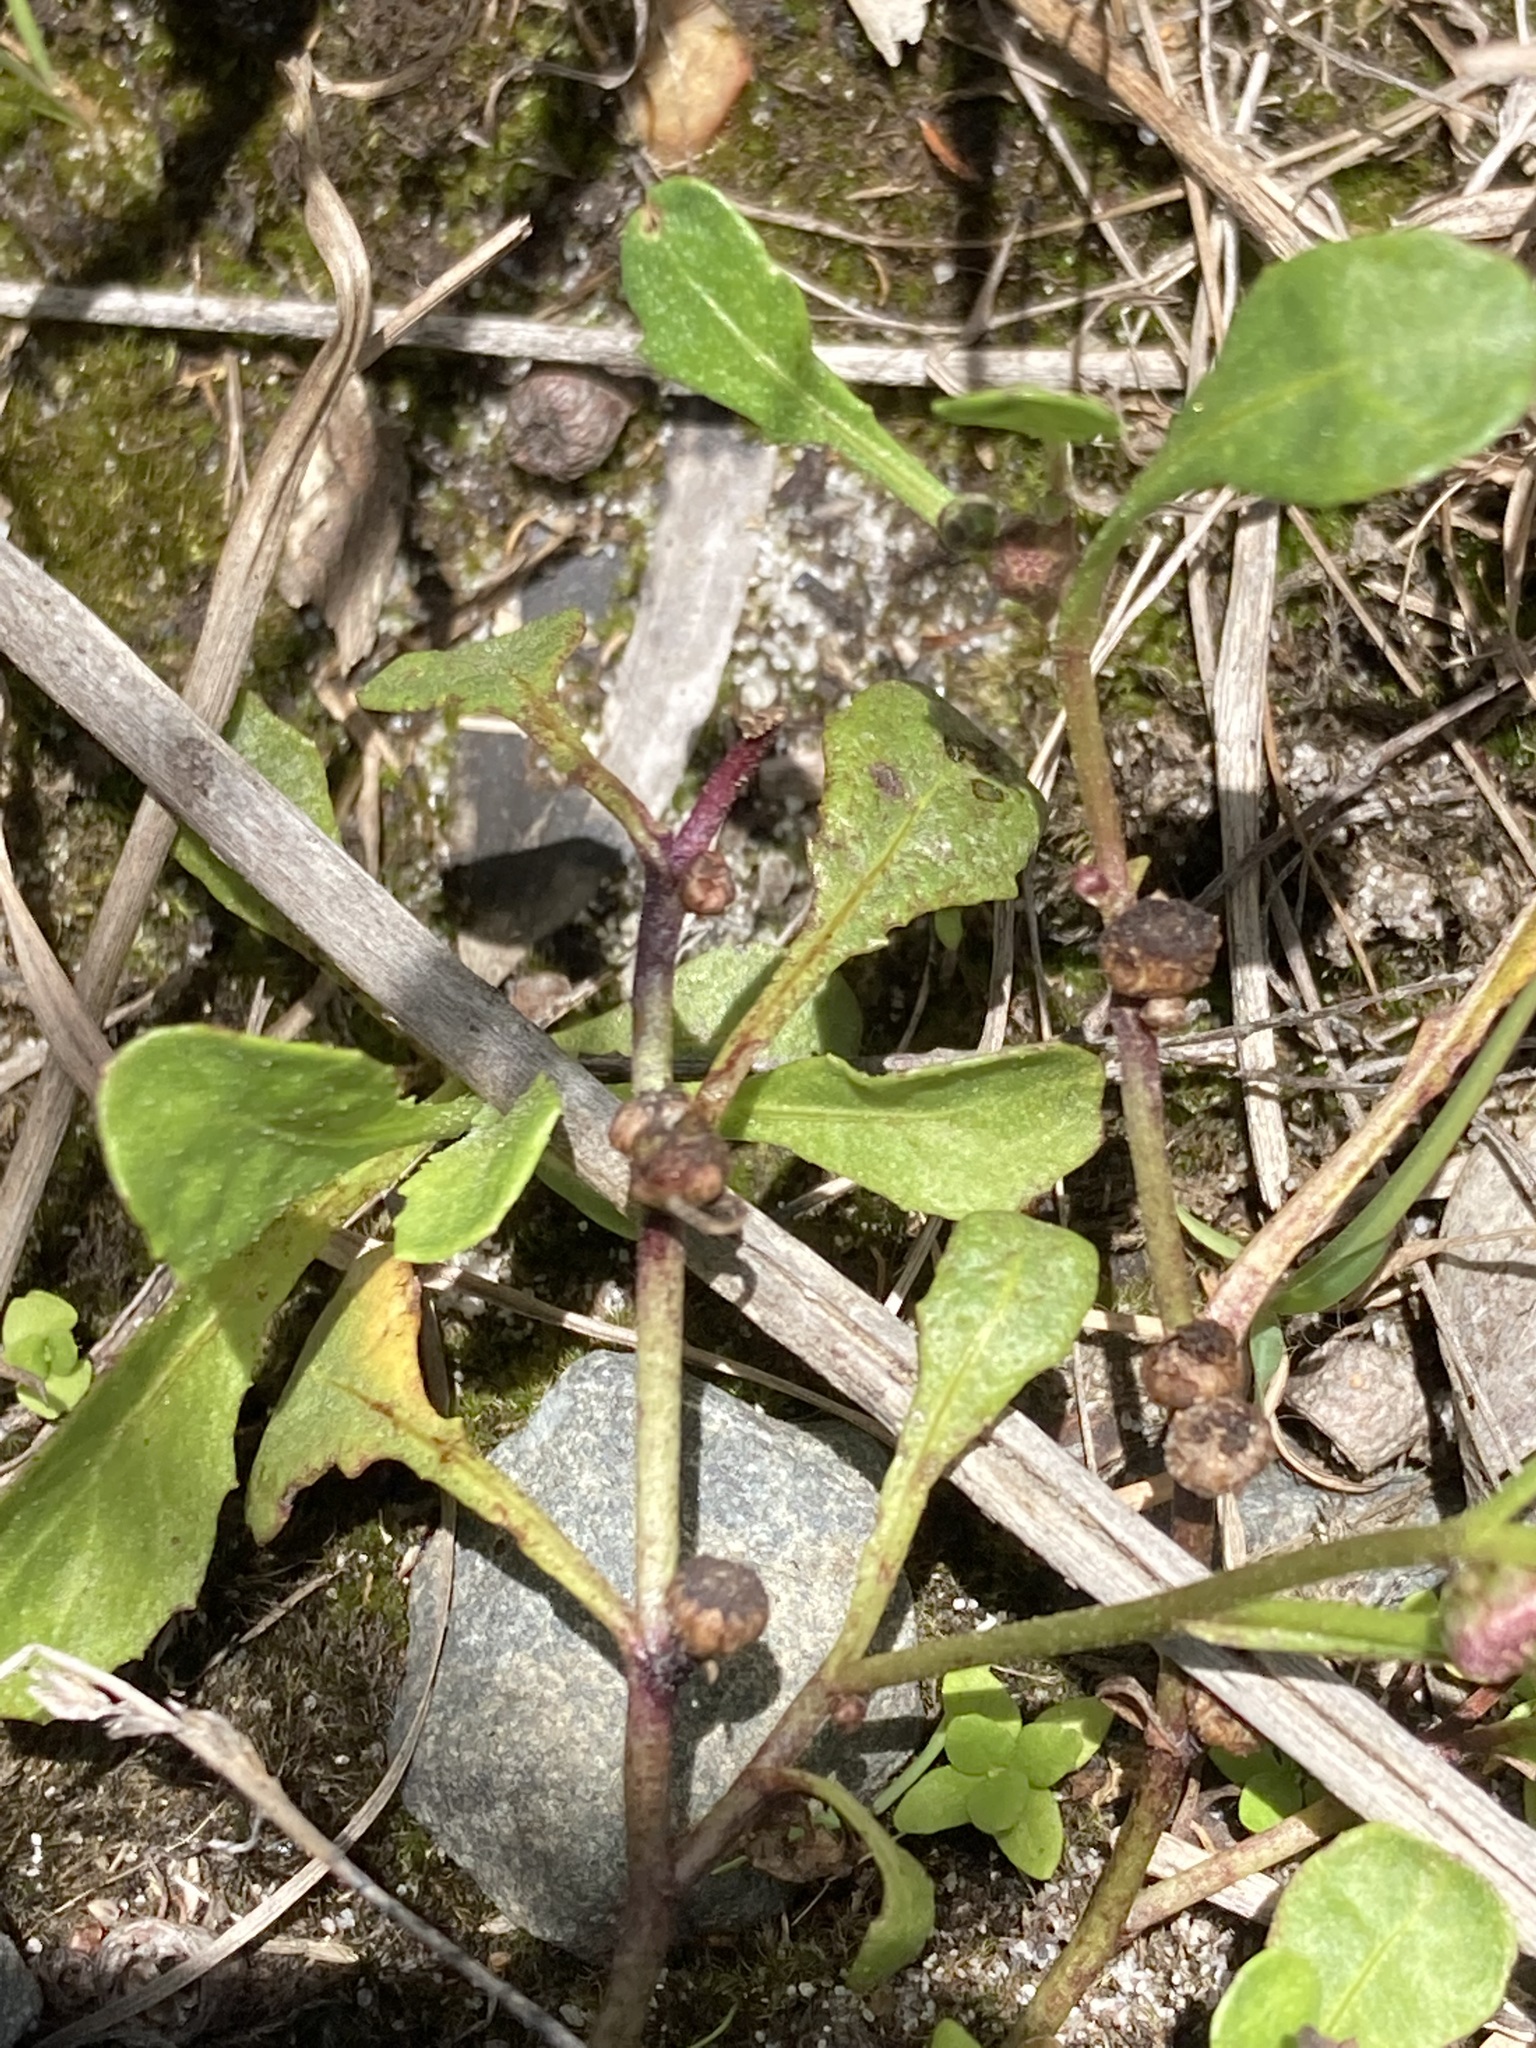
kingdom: Plantae
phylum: Tracheophyta
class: Magnoliopsida
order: Asterales
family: Asteraceae
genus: Sphaeromorphaea
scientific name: Sphaeromorphaea australis
